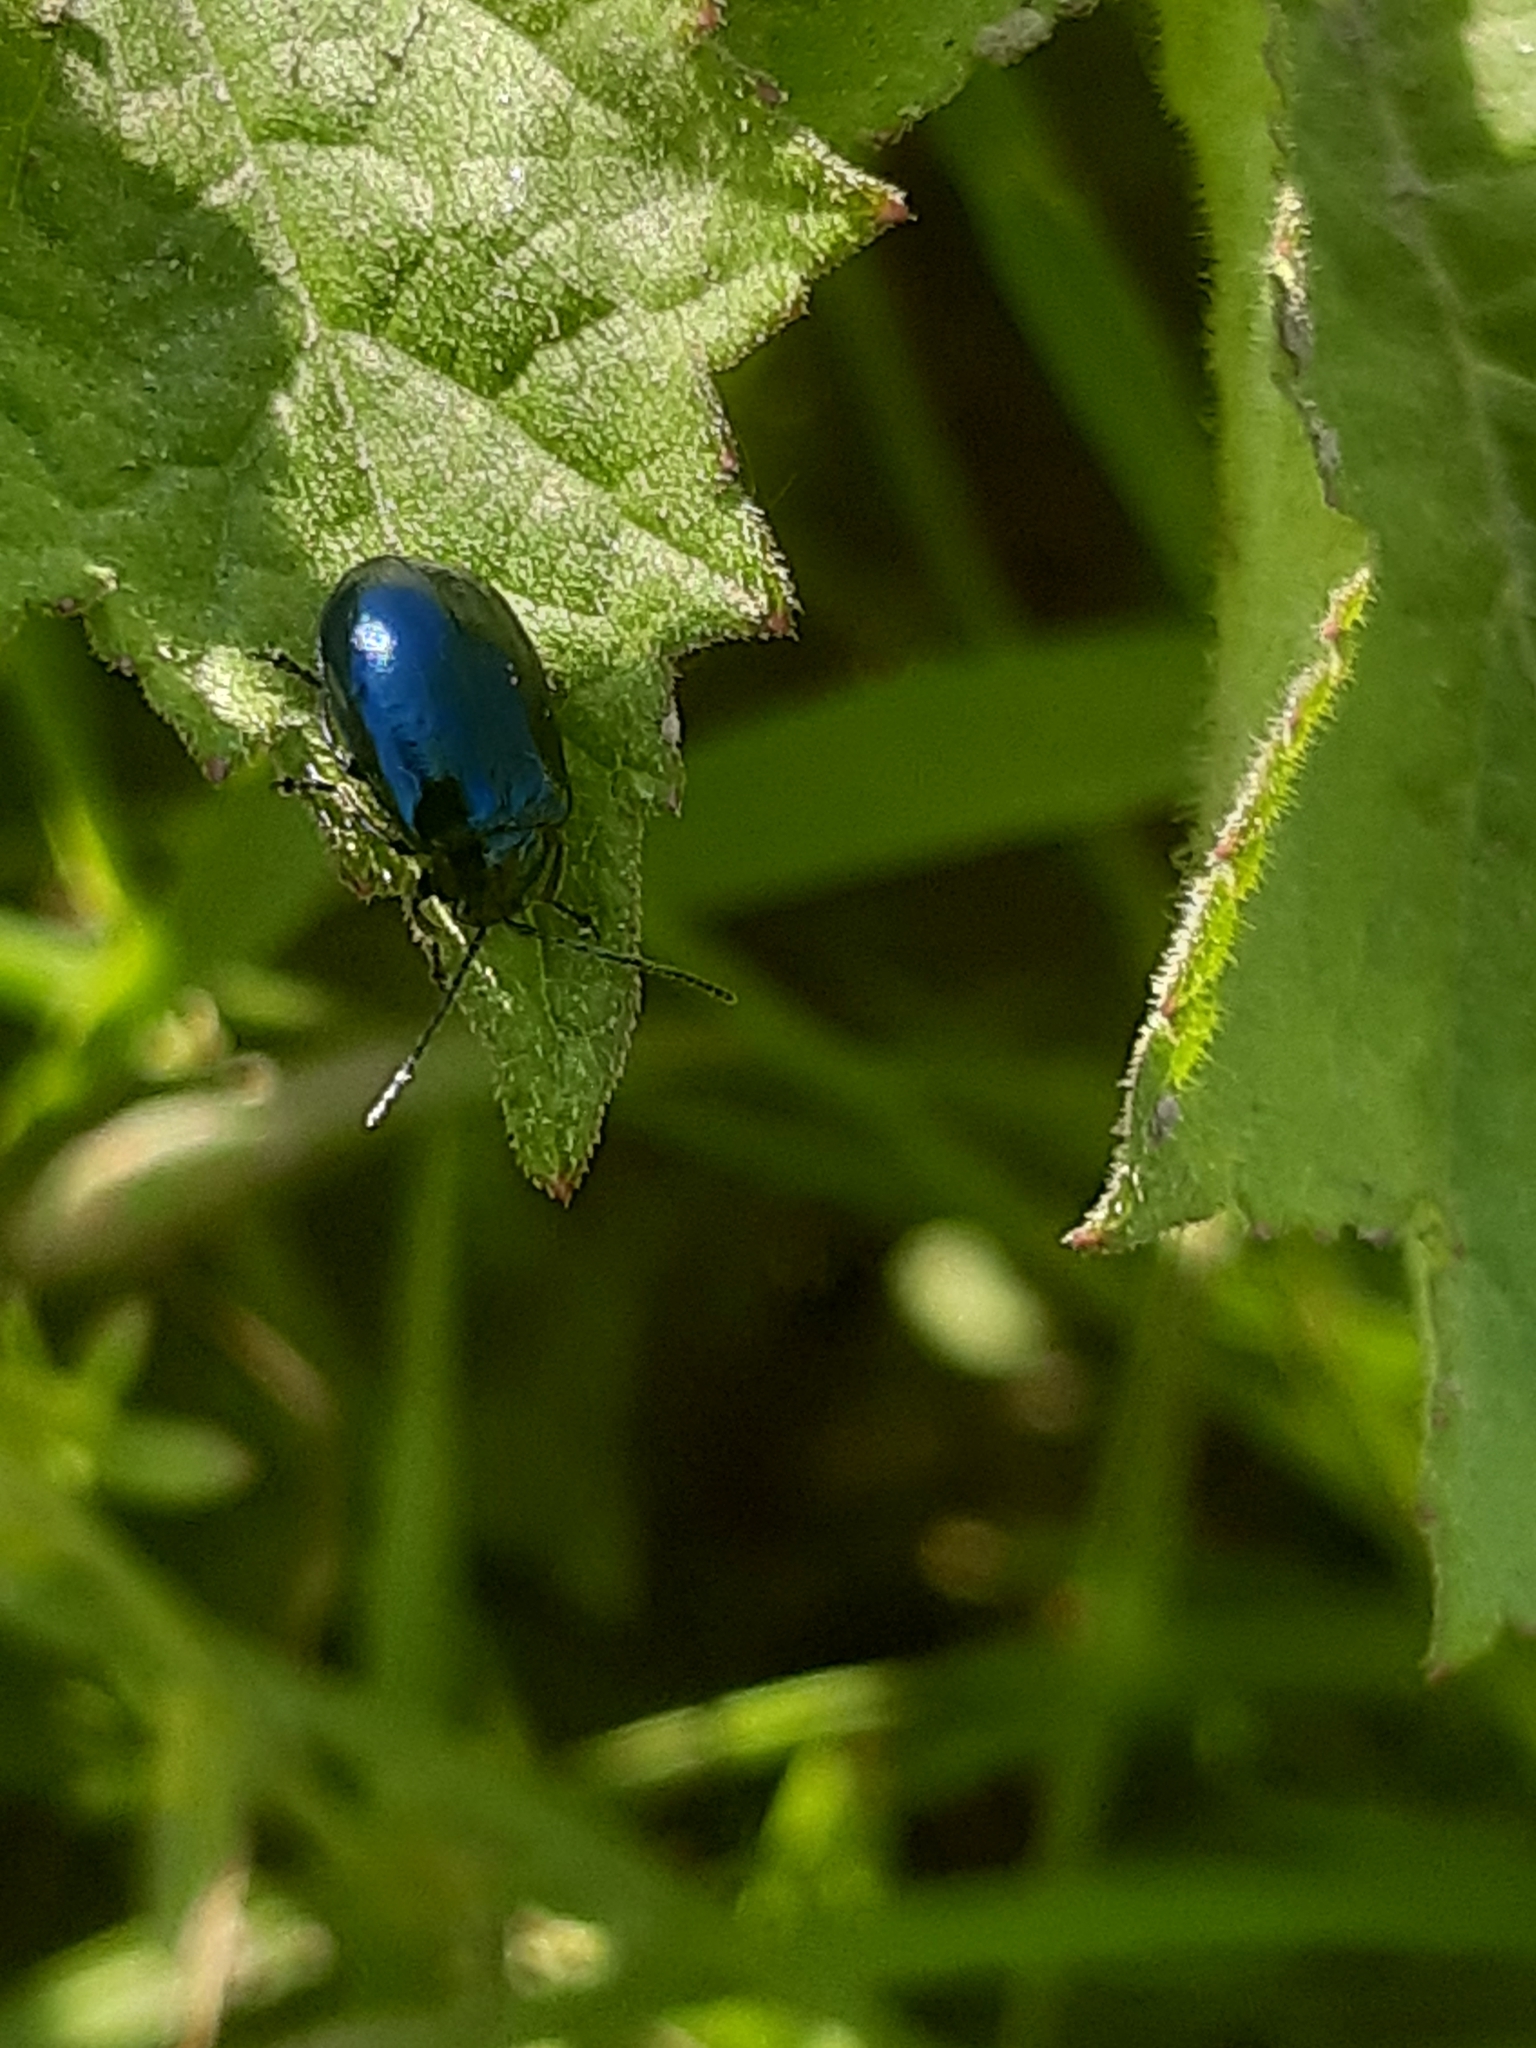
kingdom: Animalia
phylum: Arthropoda
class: Insecta
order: Coleoptera
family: Chrysomelidae
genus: Agelastica
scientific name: Agelastica alni
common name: Alder leaf beetle
